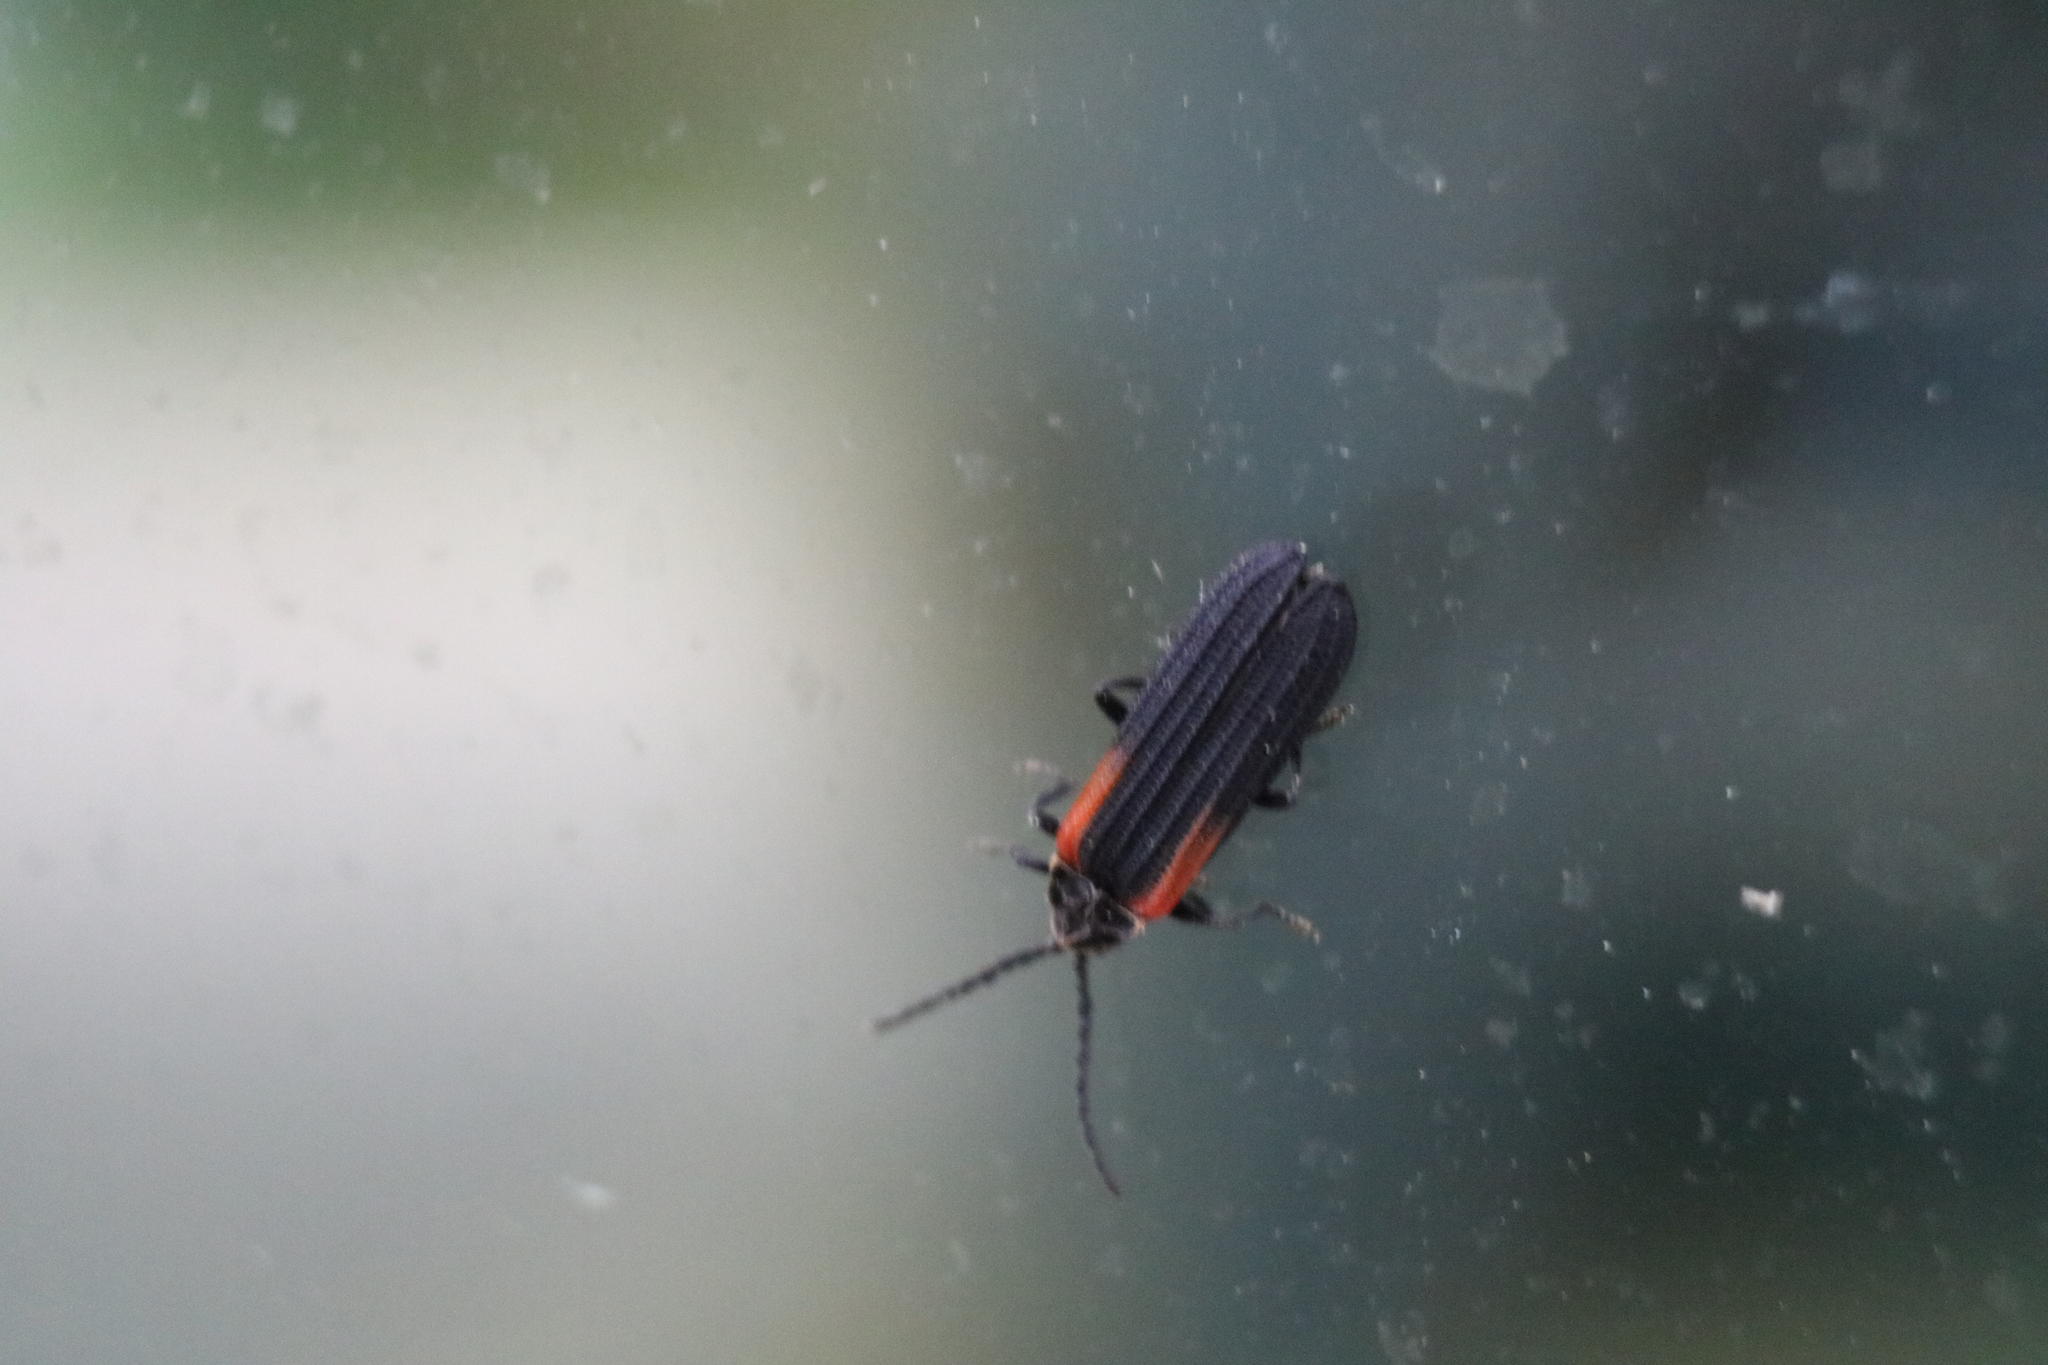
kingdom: Animalia
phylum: Arthropoda
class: Insecta
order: Coleoptera
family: Lycidae
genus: Greenarus
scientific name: Greenarus thoracicus
